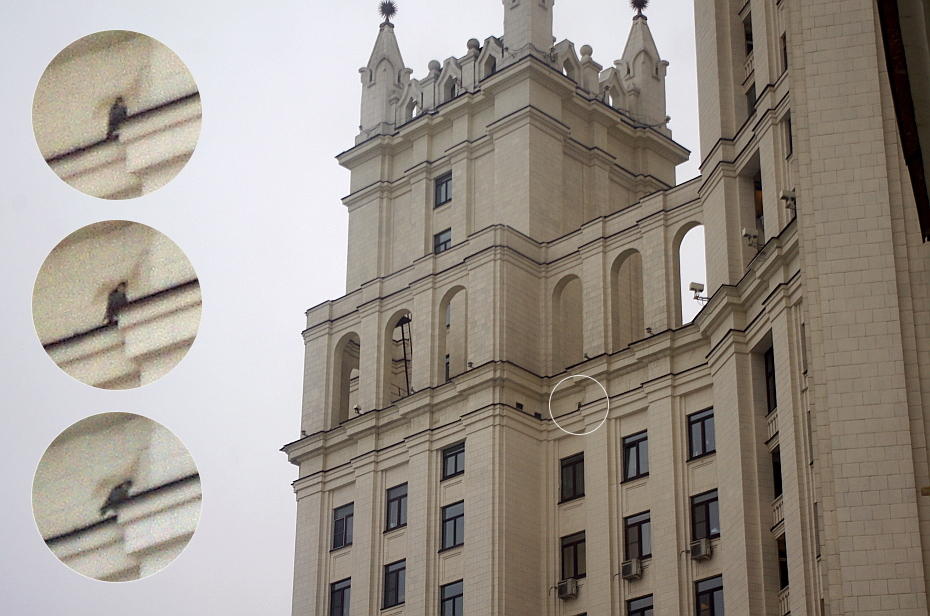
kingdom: Animalia
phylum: Chordata
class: Aves
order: Falconiformes
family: Falconidae
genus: Falco
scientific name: Falco peregrinus
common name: Peregrine falcon
